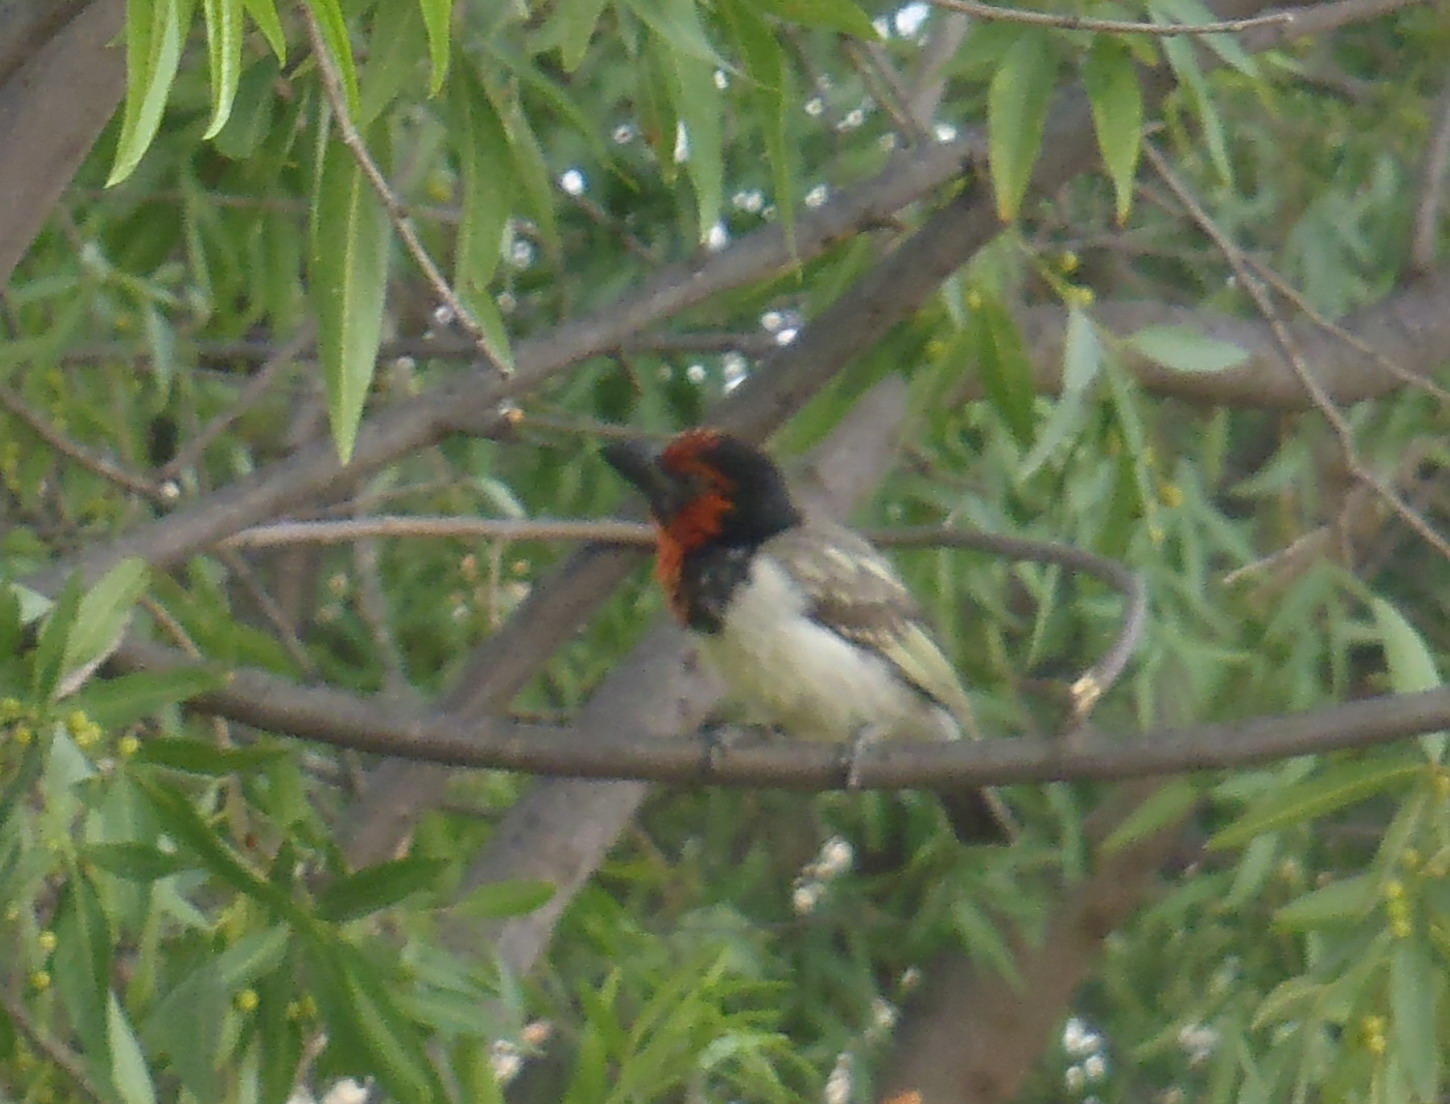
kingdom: Animalia
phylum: Chordata
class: Aves
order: Piciformes
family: Lybiidae
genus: Lybius
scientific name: Lybius torquatus
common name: Black-collared barbet
